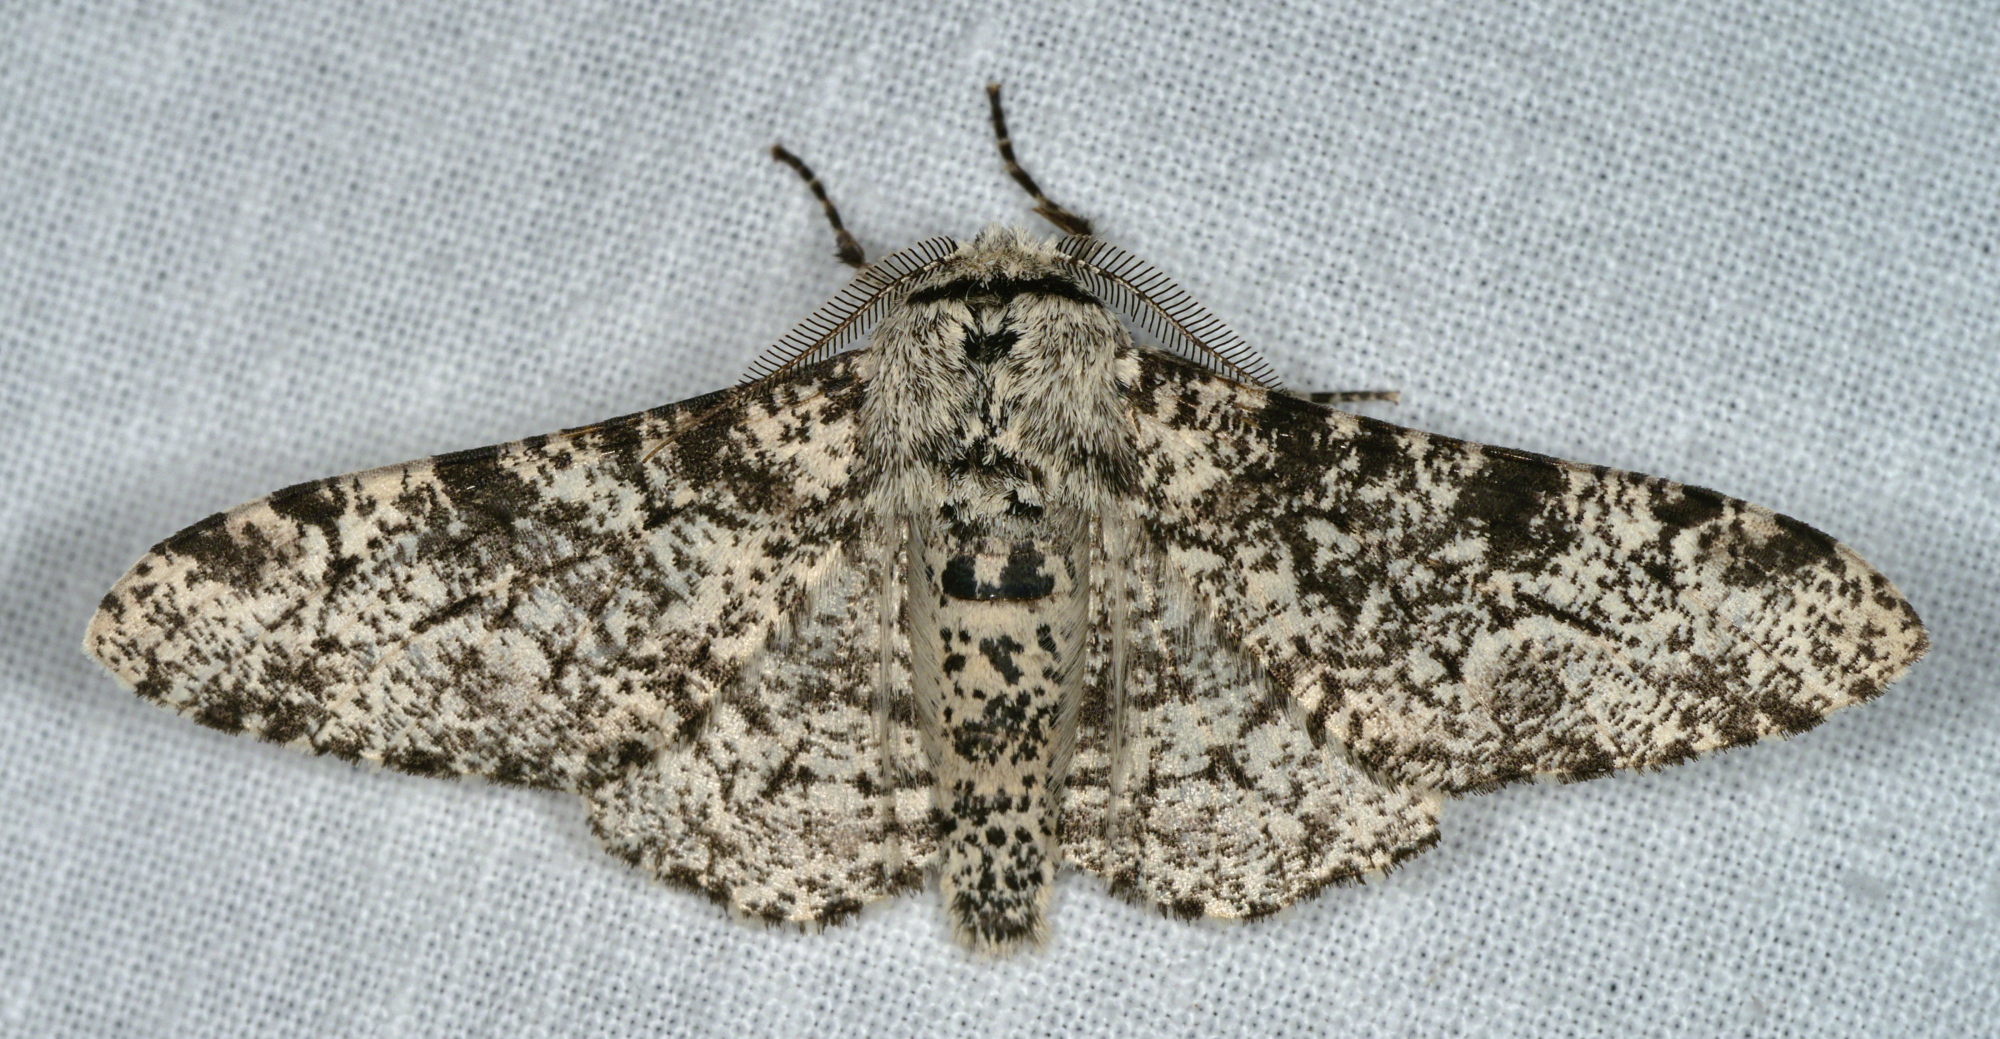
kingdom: Animalia
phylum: Arthropoda
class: Insecta
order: Lepidoptera
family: Geometridae
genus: Biston
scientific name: Biston betularia
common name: Peppered moth
